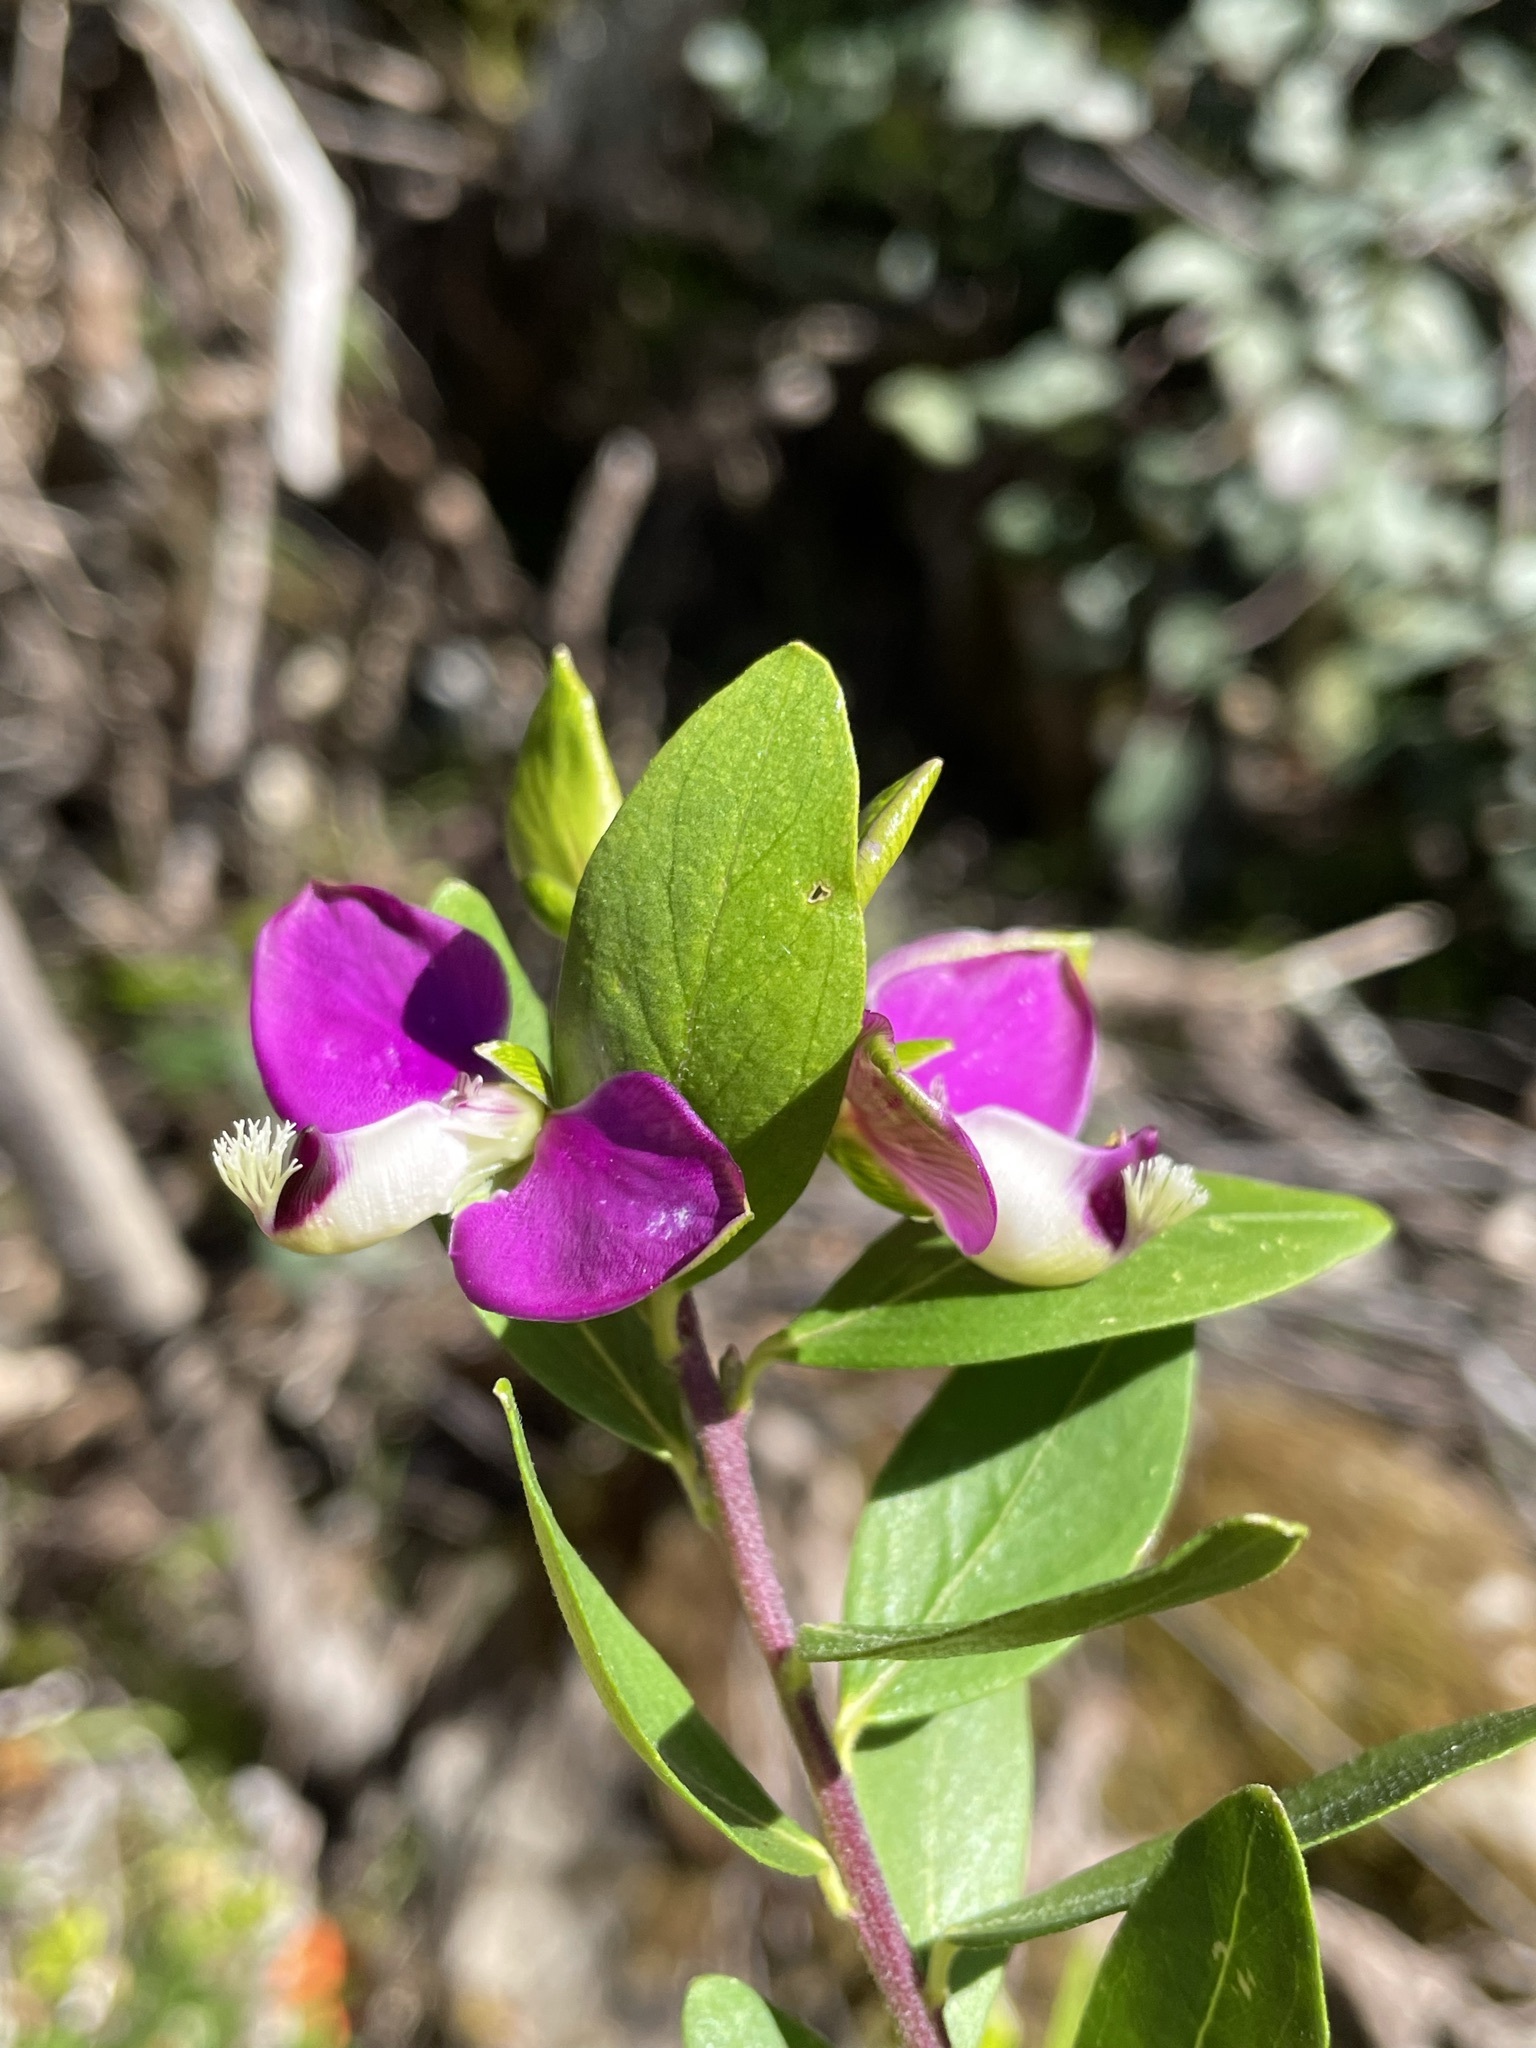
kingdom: Plantae
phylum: Tracheophyta
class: Magnoliopsida
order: Fabales
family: Polygalaceae
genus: Polygala
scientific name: Polygala myrtifolia
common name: Myrtle-leaf milkwort
